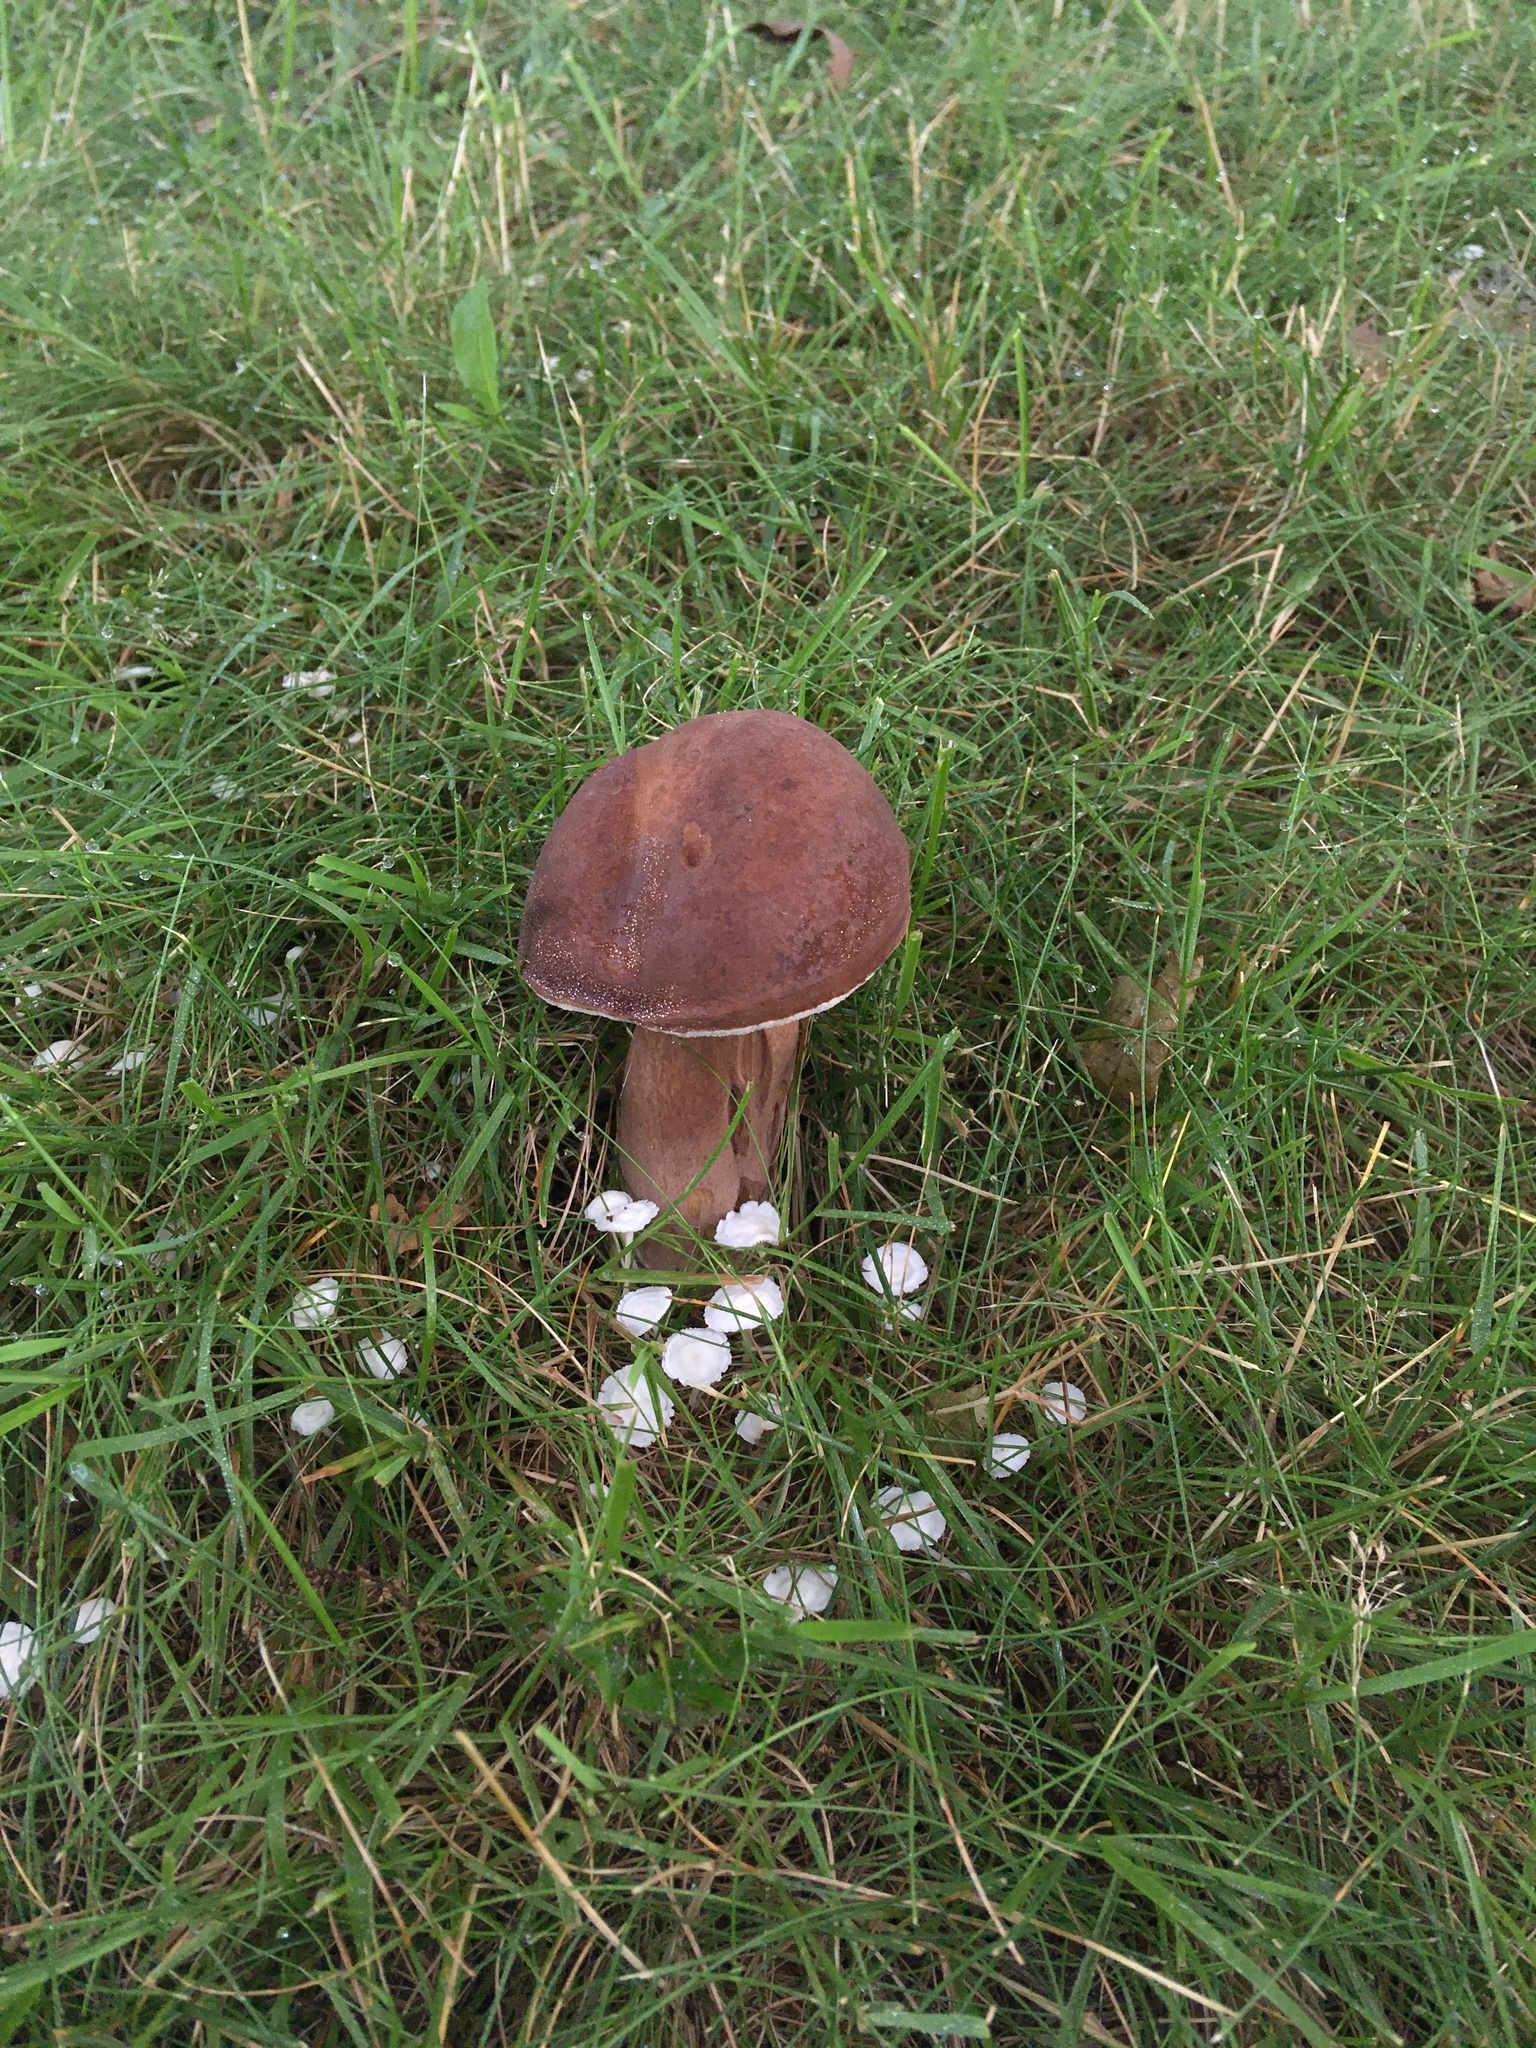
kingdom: Fungi
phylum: Basidiomycota
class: Agaricomycetes
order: Boletales
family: Boletaceae
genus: Tylopilus
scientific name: Tylopilus badiceps
